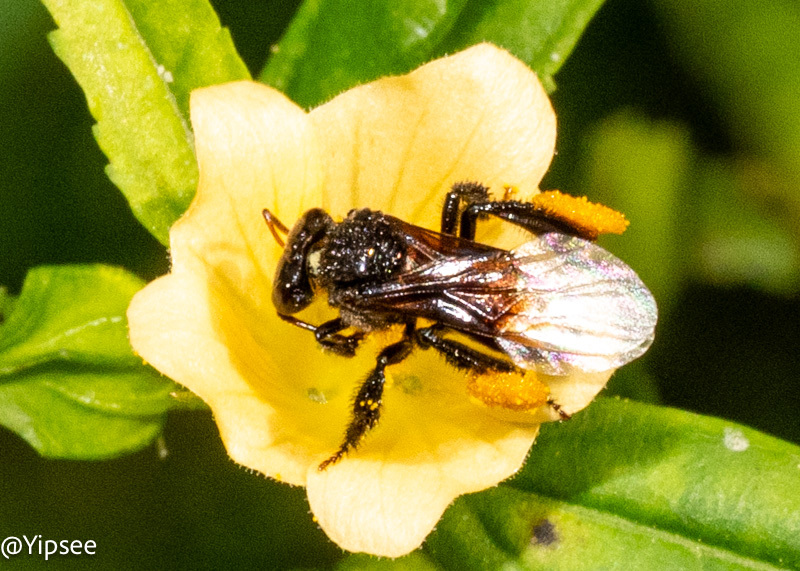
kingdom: Animalia
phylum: Arthropoda
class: Insecta
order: Hymenoptera
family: Apidae
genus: Tetragonula
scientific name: Tetragonula collina
